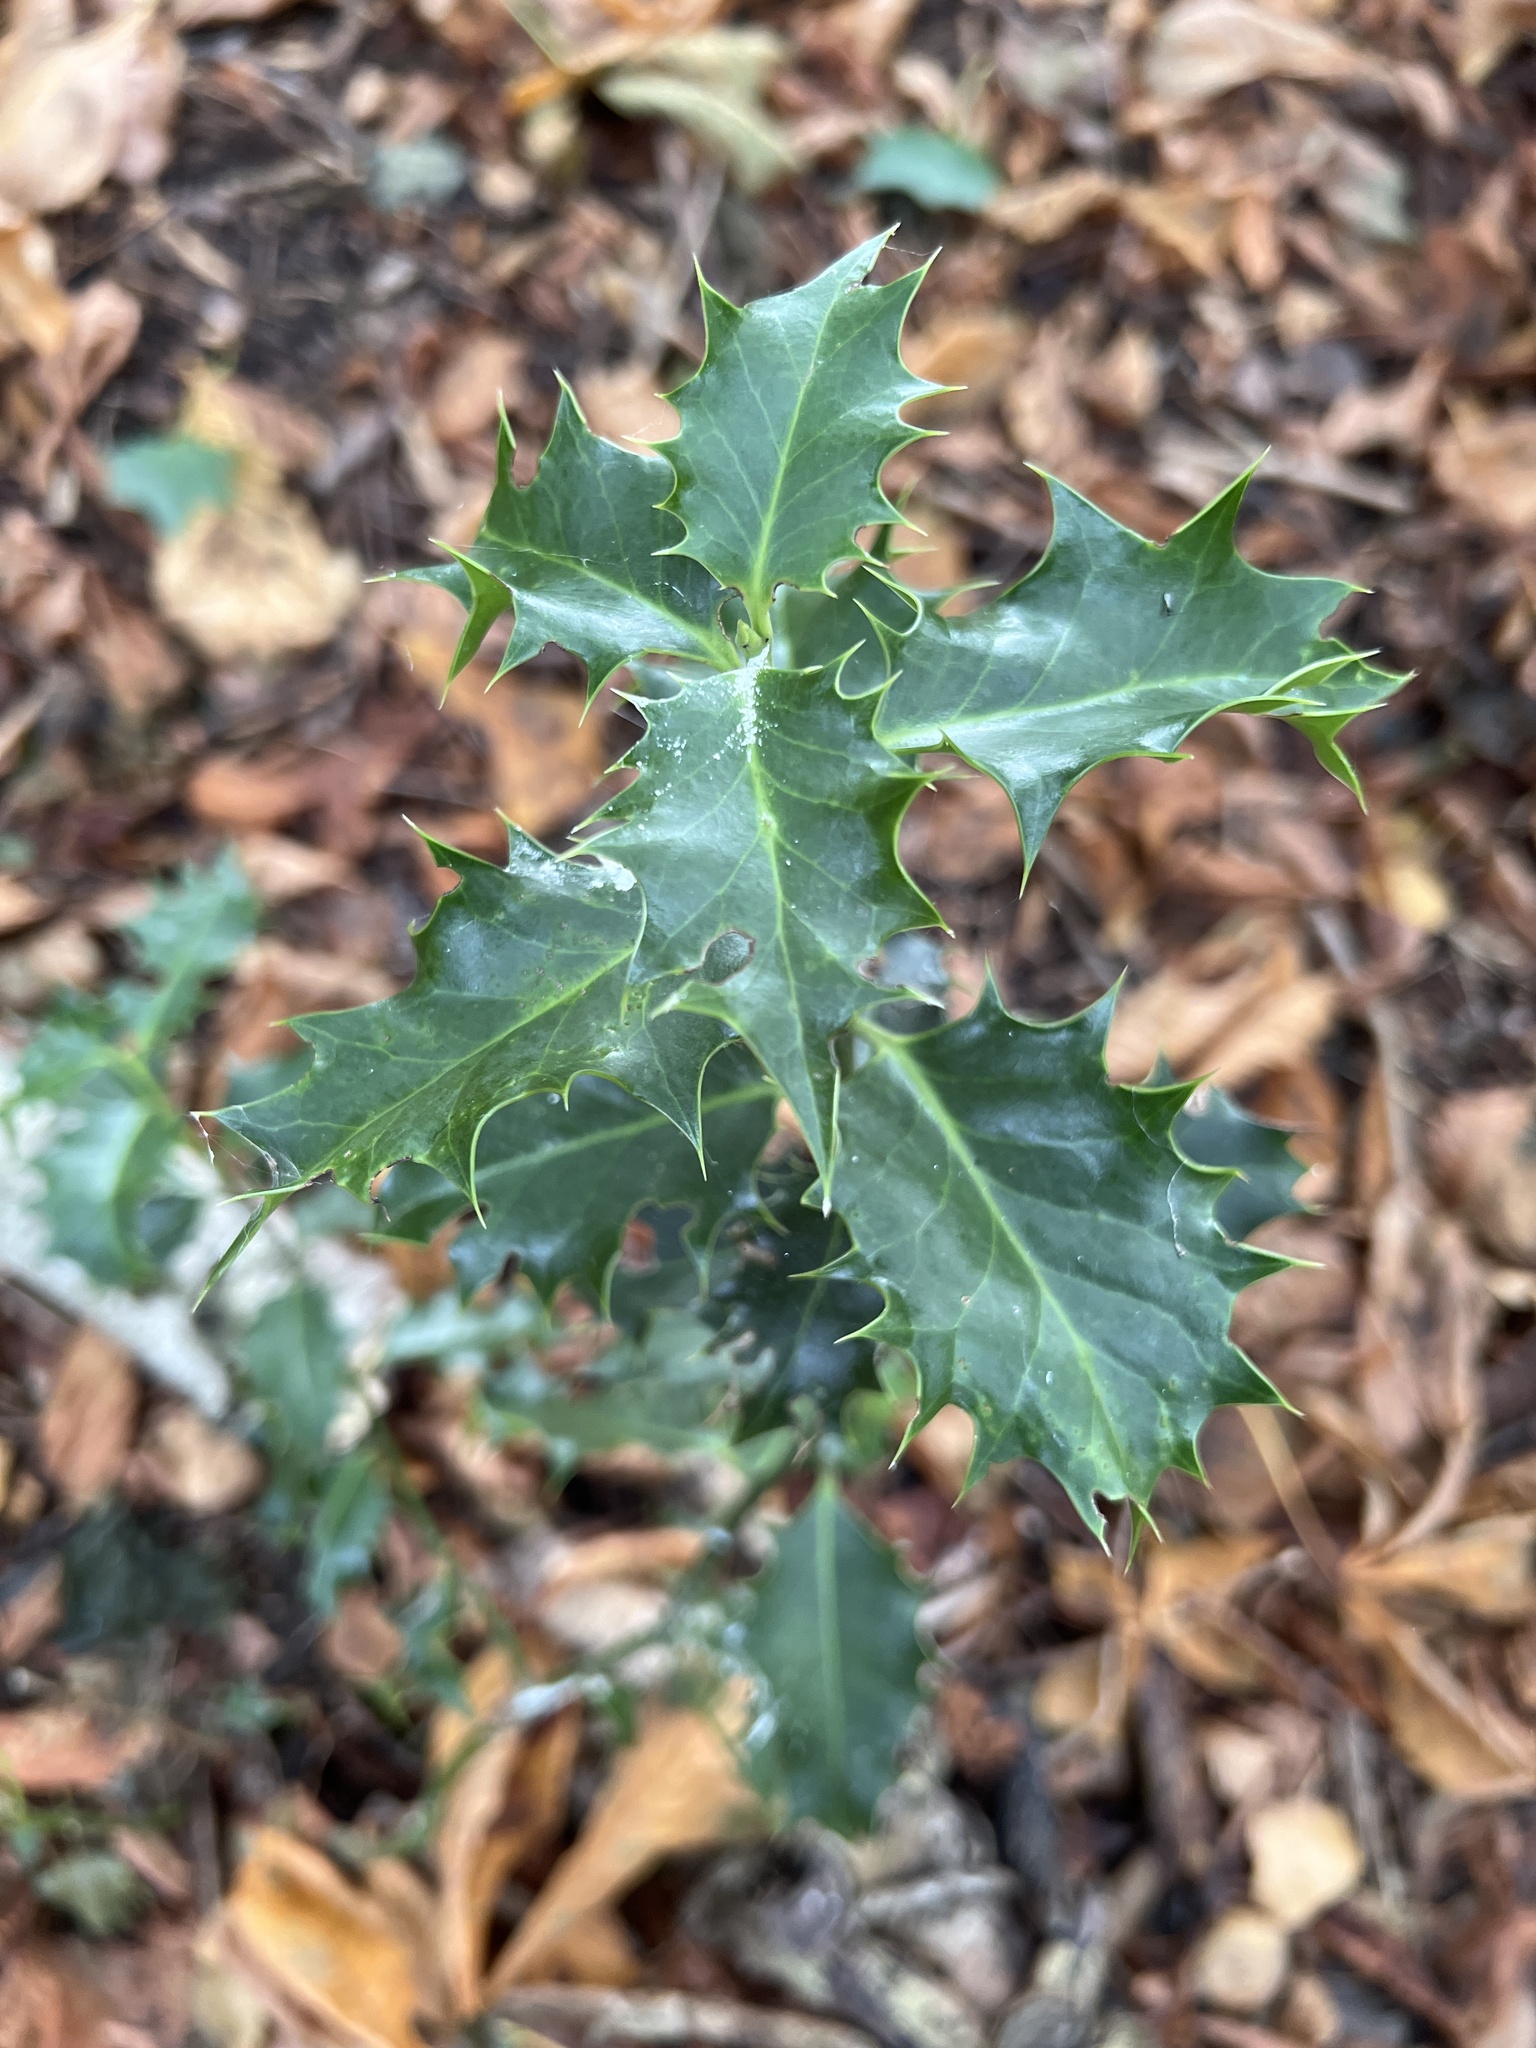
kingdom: Plantae
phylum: Tracheophyta
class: Magnoliopsida
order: Aquifoliales
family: Aquifoliaceae
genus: Ilex
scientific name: Ilex aquifolium
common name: English holly
